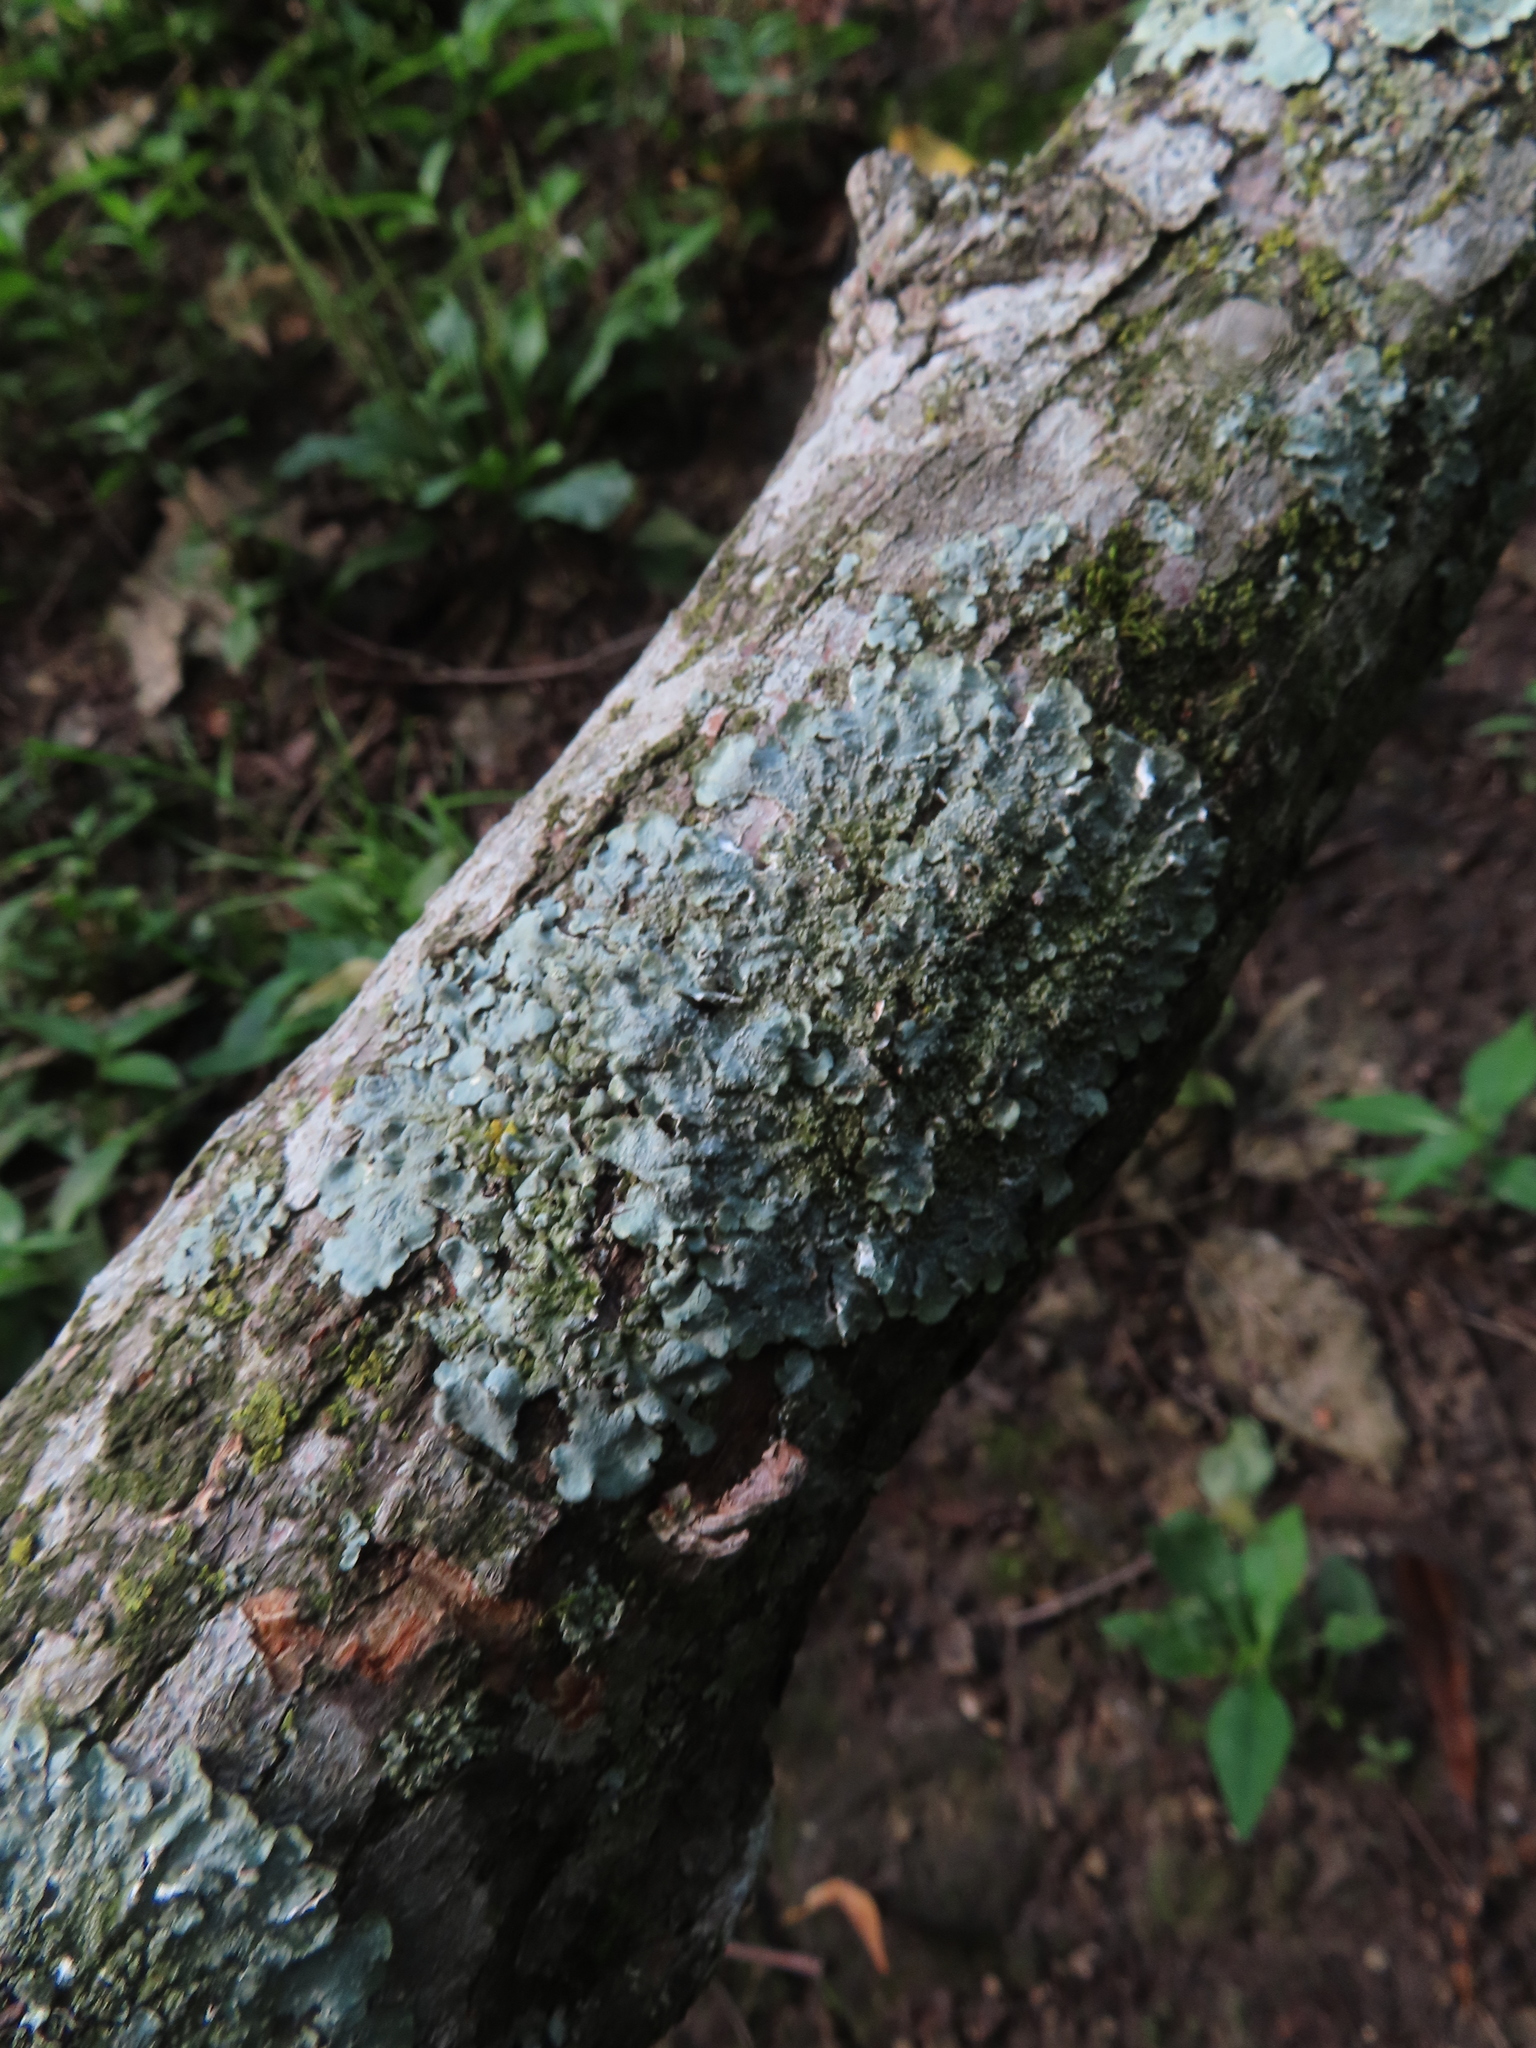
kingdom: Fungi
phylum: Ascomycota
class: Lecanoromycetes
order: Lecanorales
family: Parmeliaceae
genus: Punctelia
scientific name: Punctelia rudecta
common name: Rough speckled shield lichen
